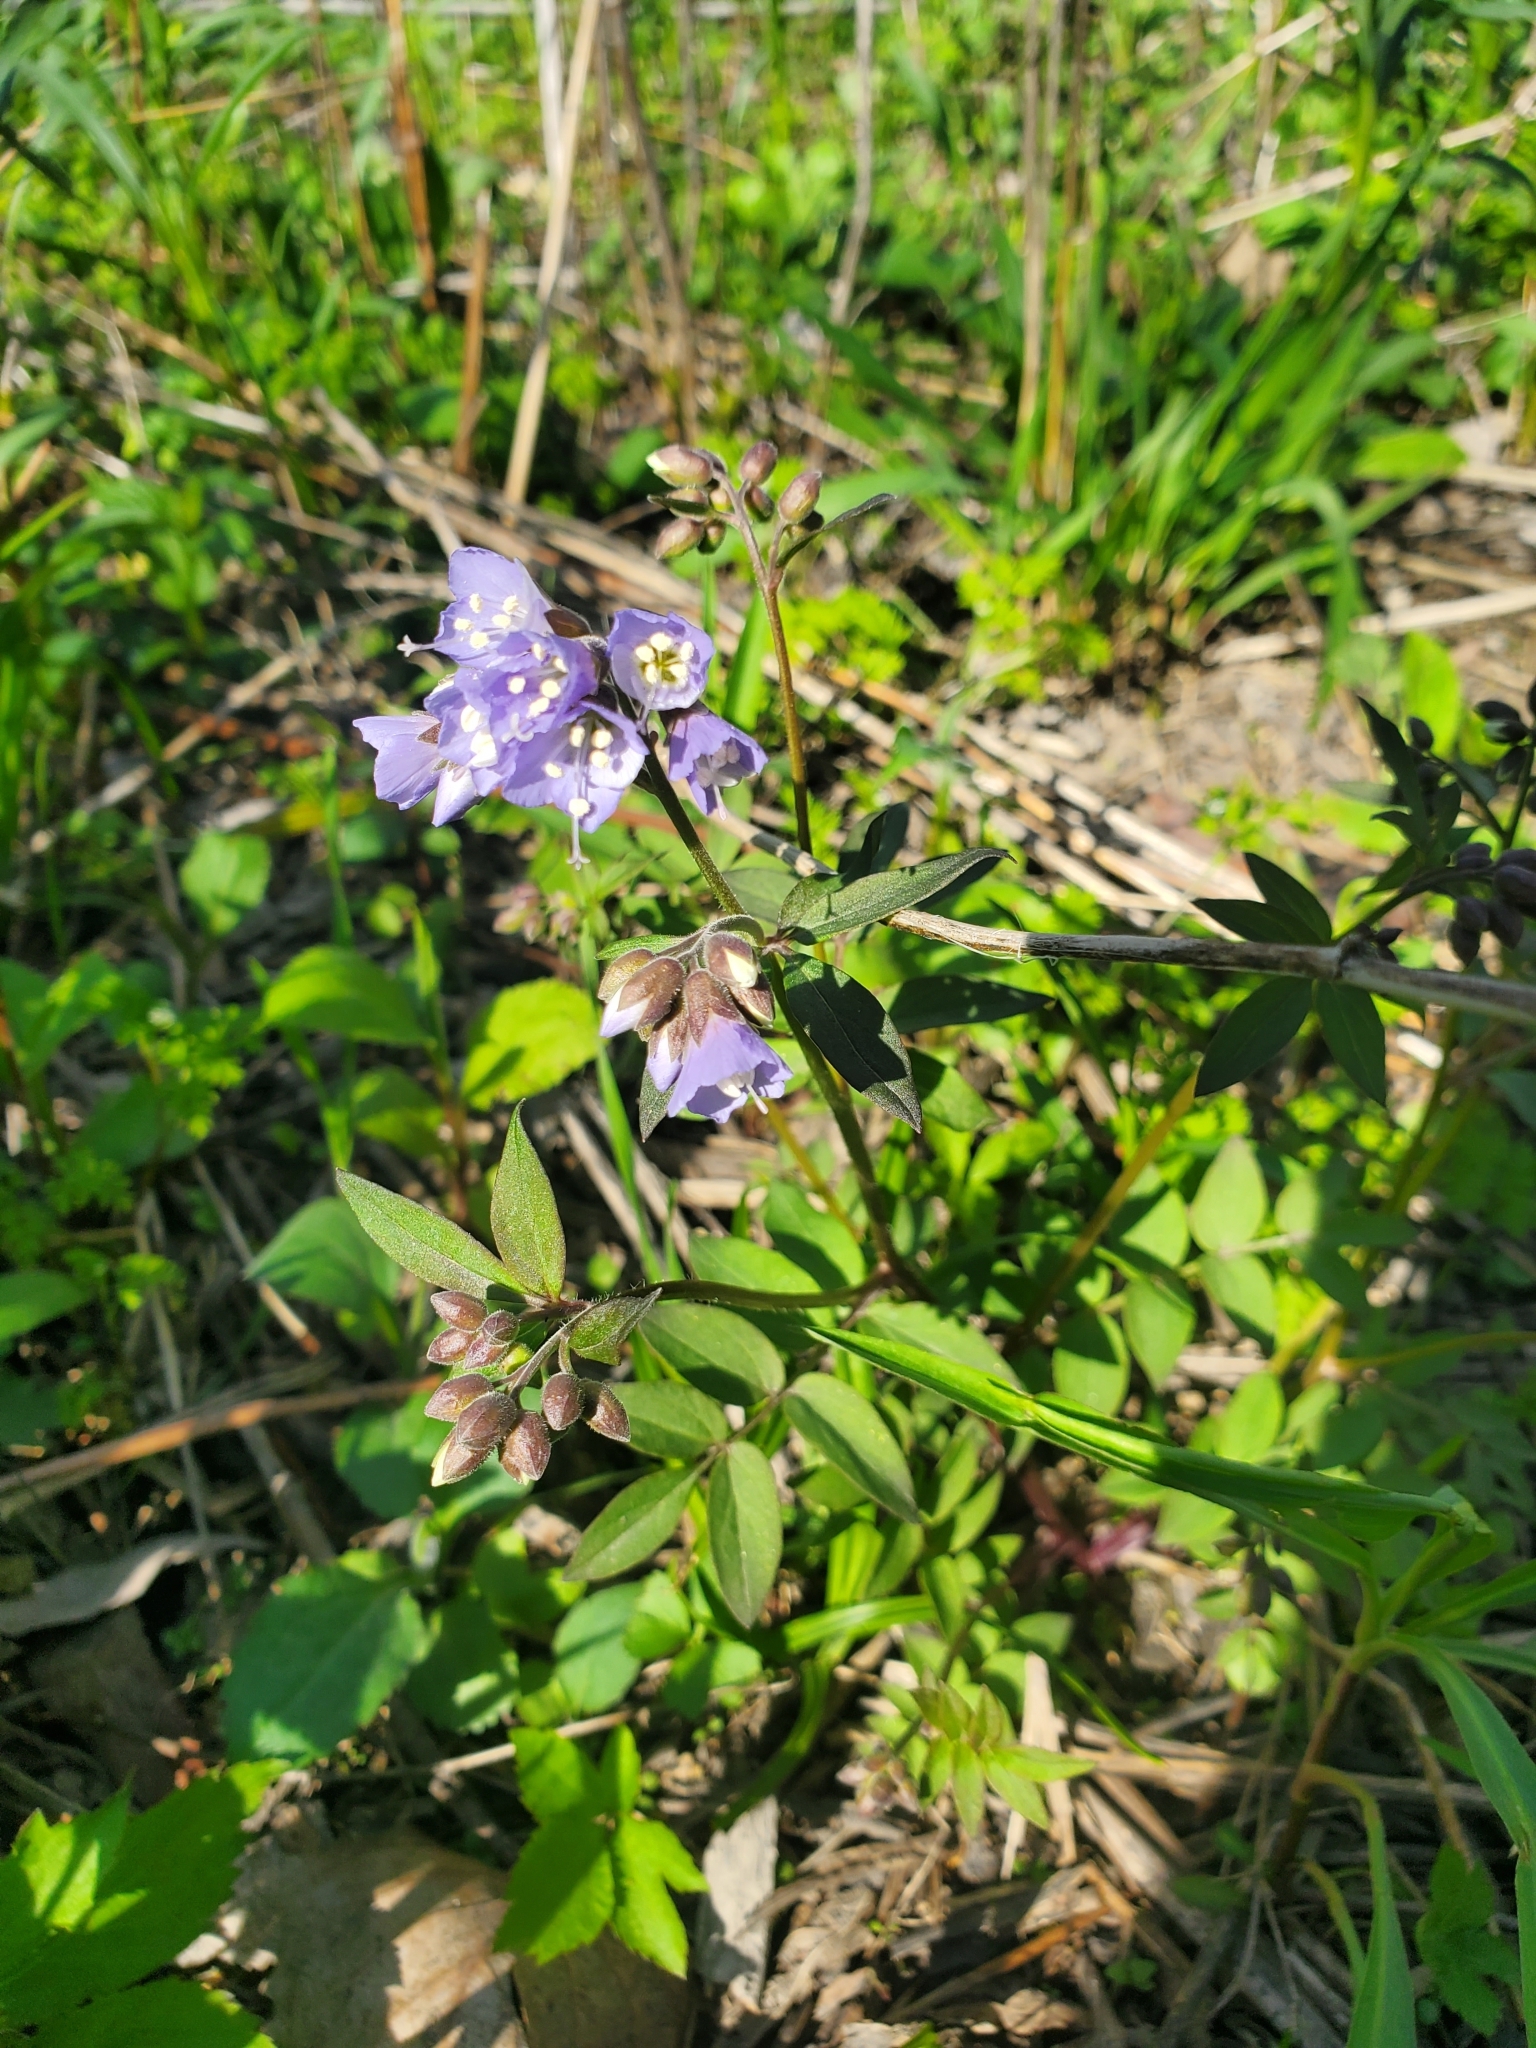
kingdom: Plantae
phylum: Tracheophyta
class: Magnoliopsida
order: Ericales
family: Polemoniaceae
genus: Polemonium
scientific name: Polemonium reptans
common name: Creeping jacob's-ladder
